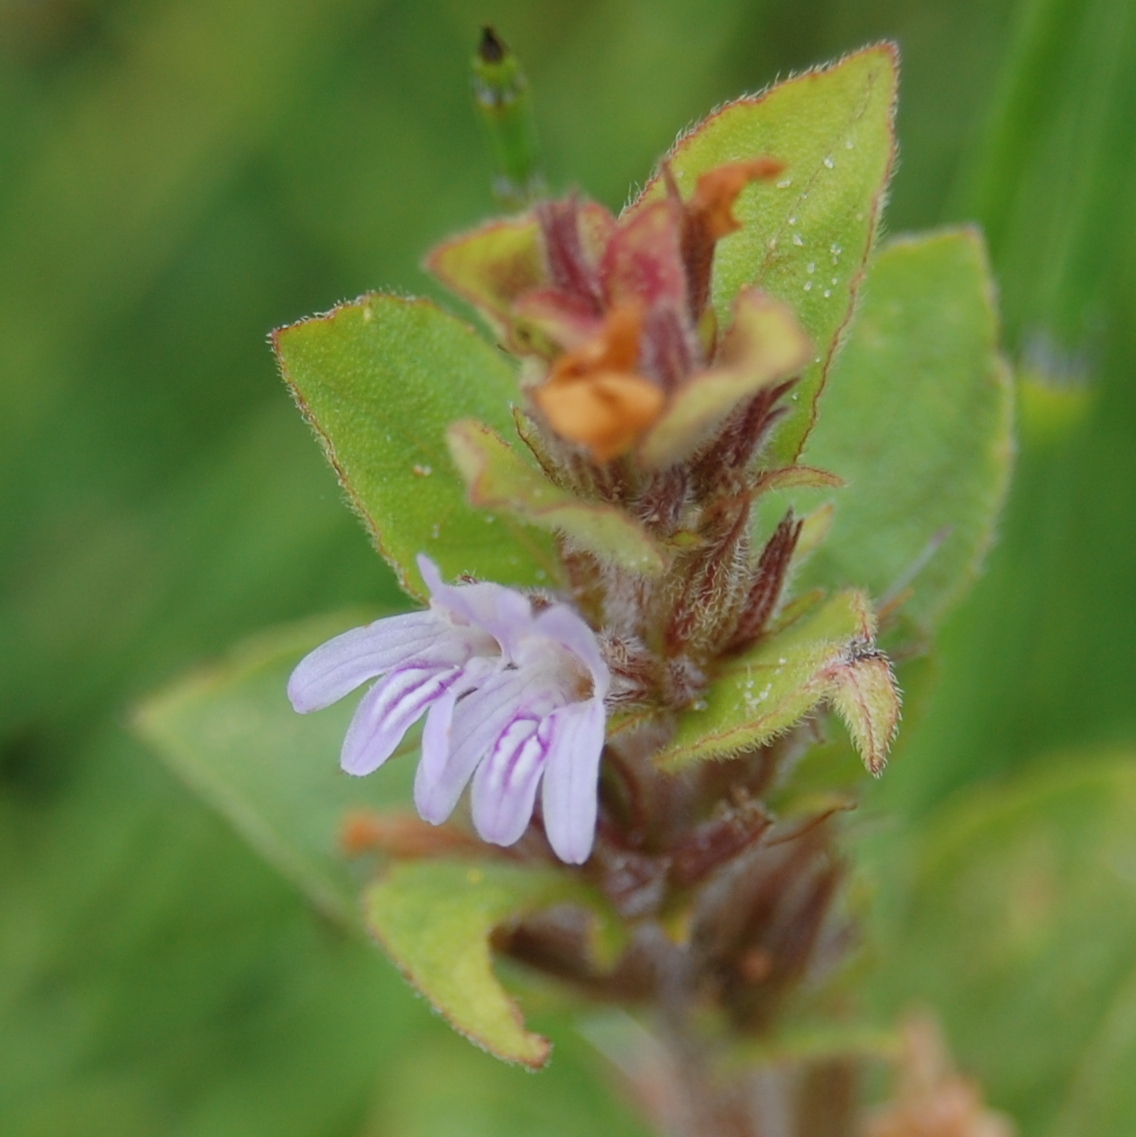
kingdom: Plantae
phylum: Tracheophyta
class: Magnoliopsida
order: Lamiales
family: Acanthaceae
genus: Hygrophila
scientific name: Hygrophila costata
